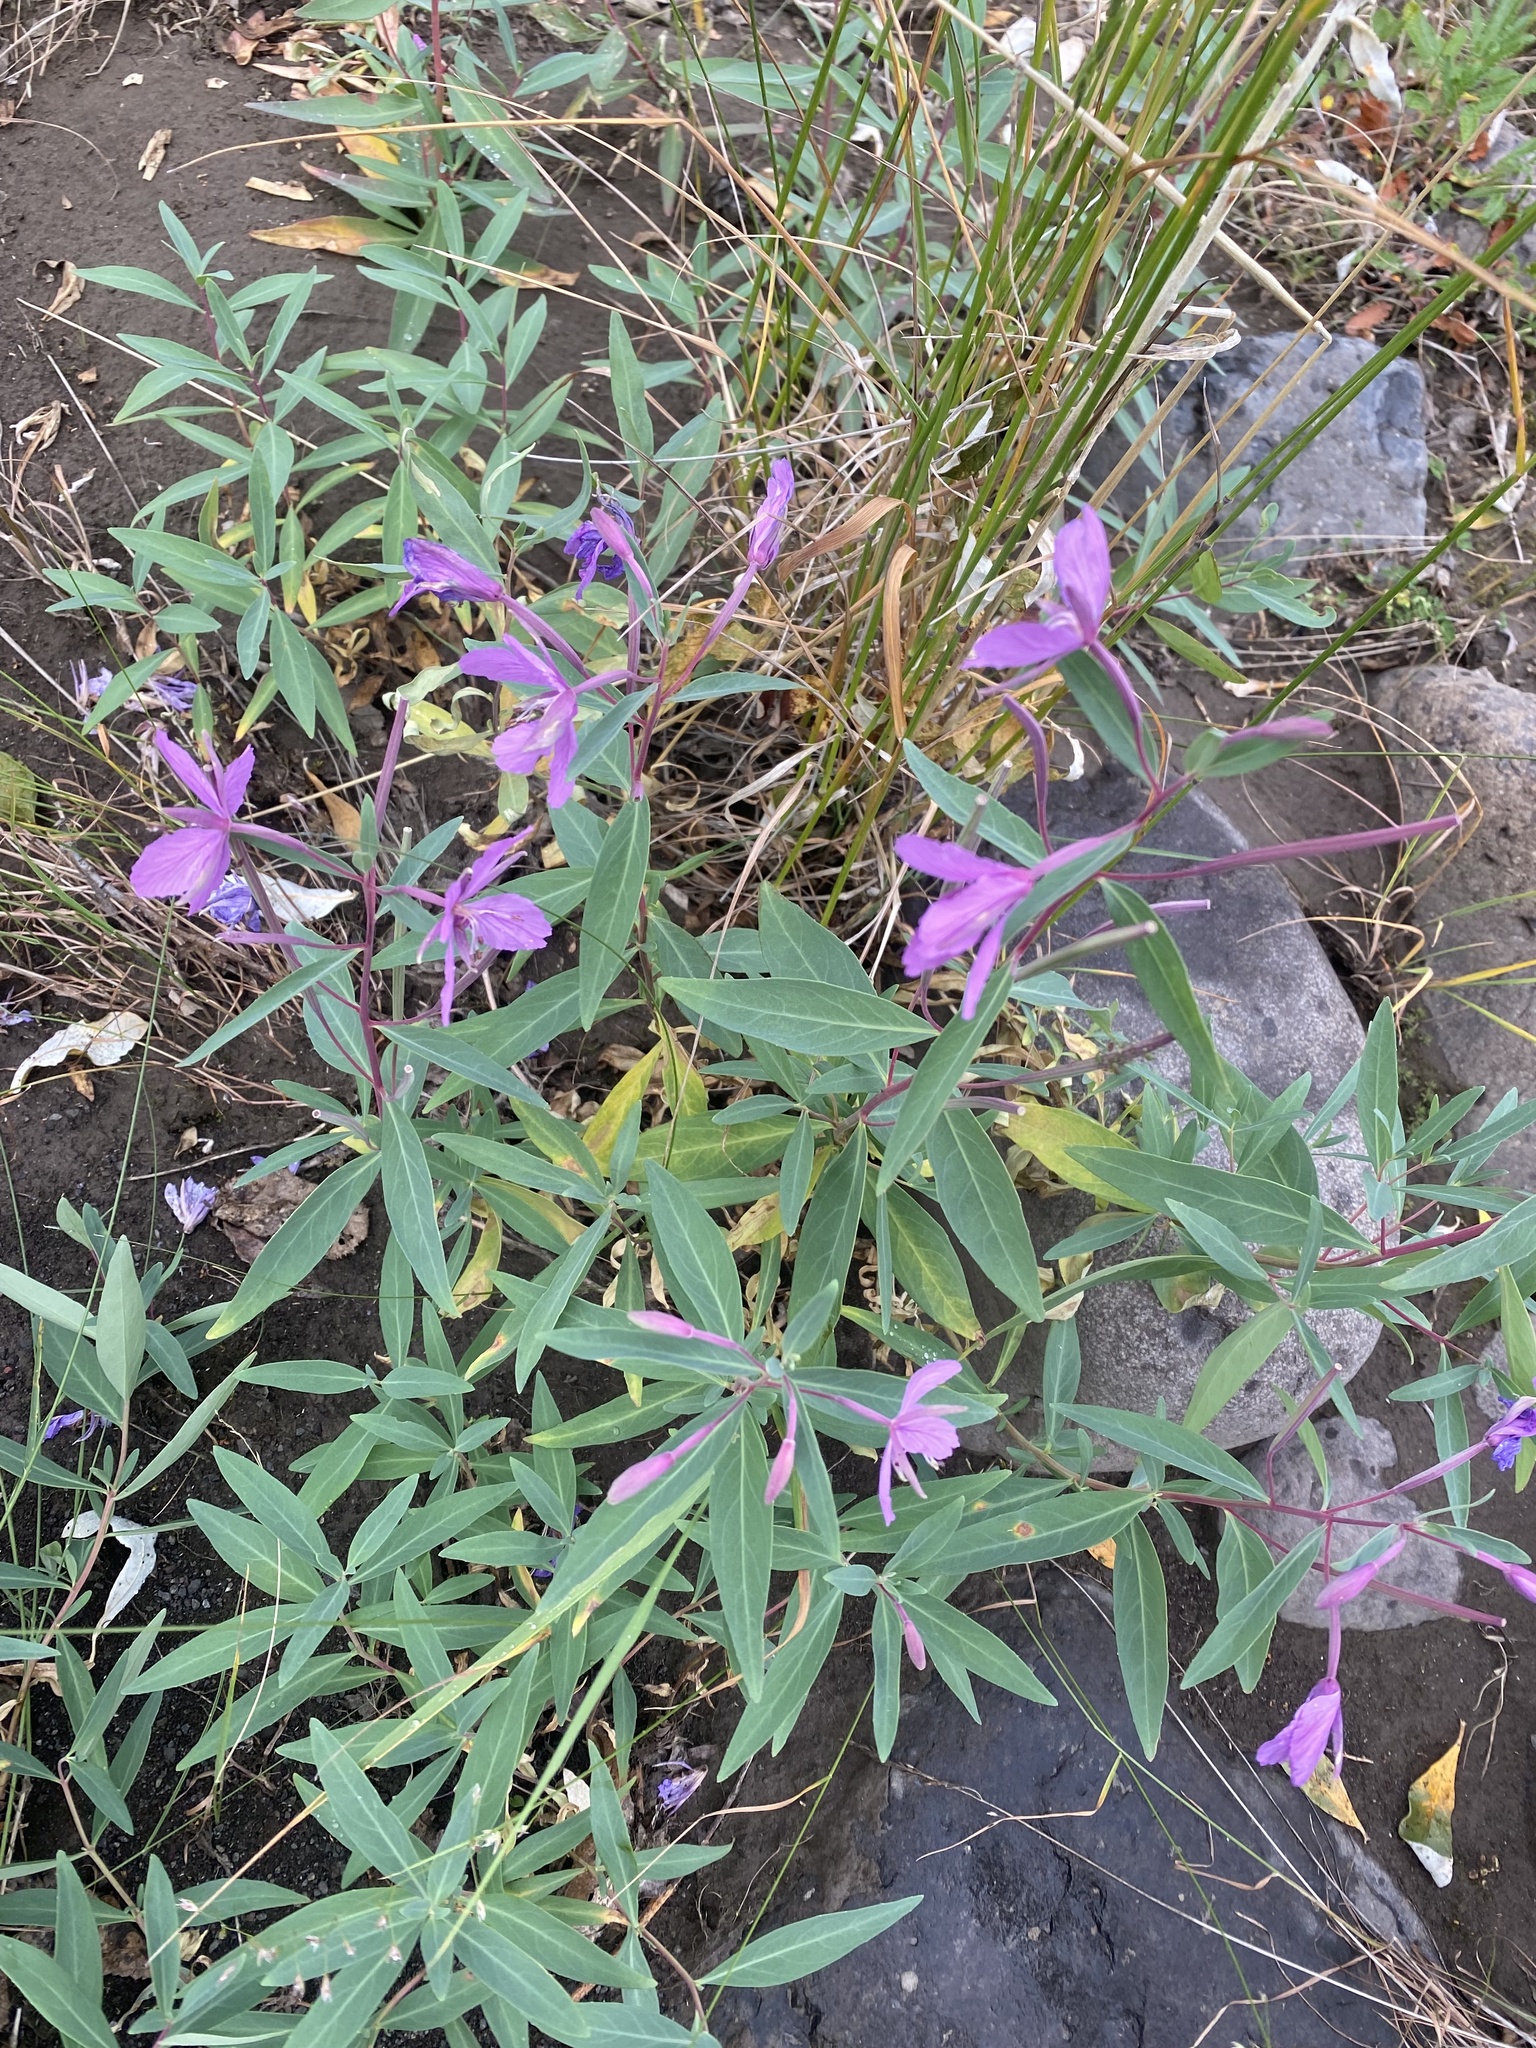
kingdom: Plantae
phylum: Tracheophyta
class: Magnoliopsida
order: Myrtales
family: Onagraceae
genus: Chamaenerion
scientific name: Chamaenerion latifolium
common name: Dwarf fireweed
